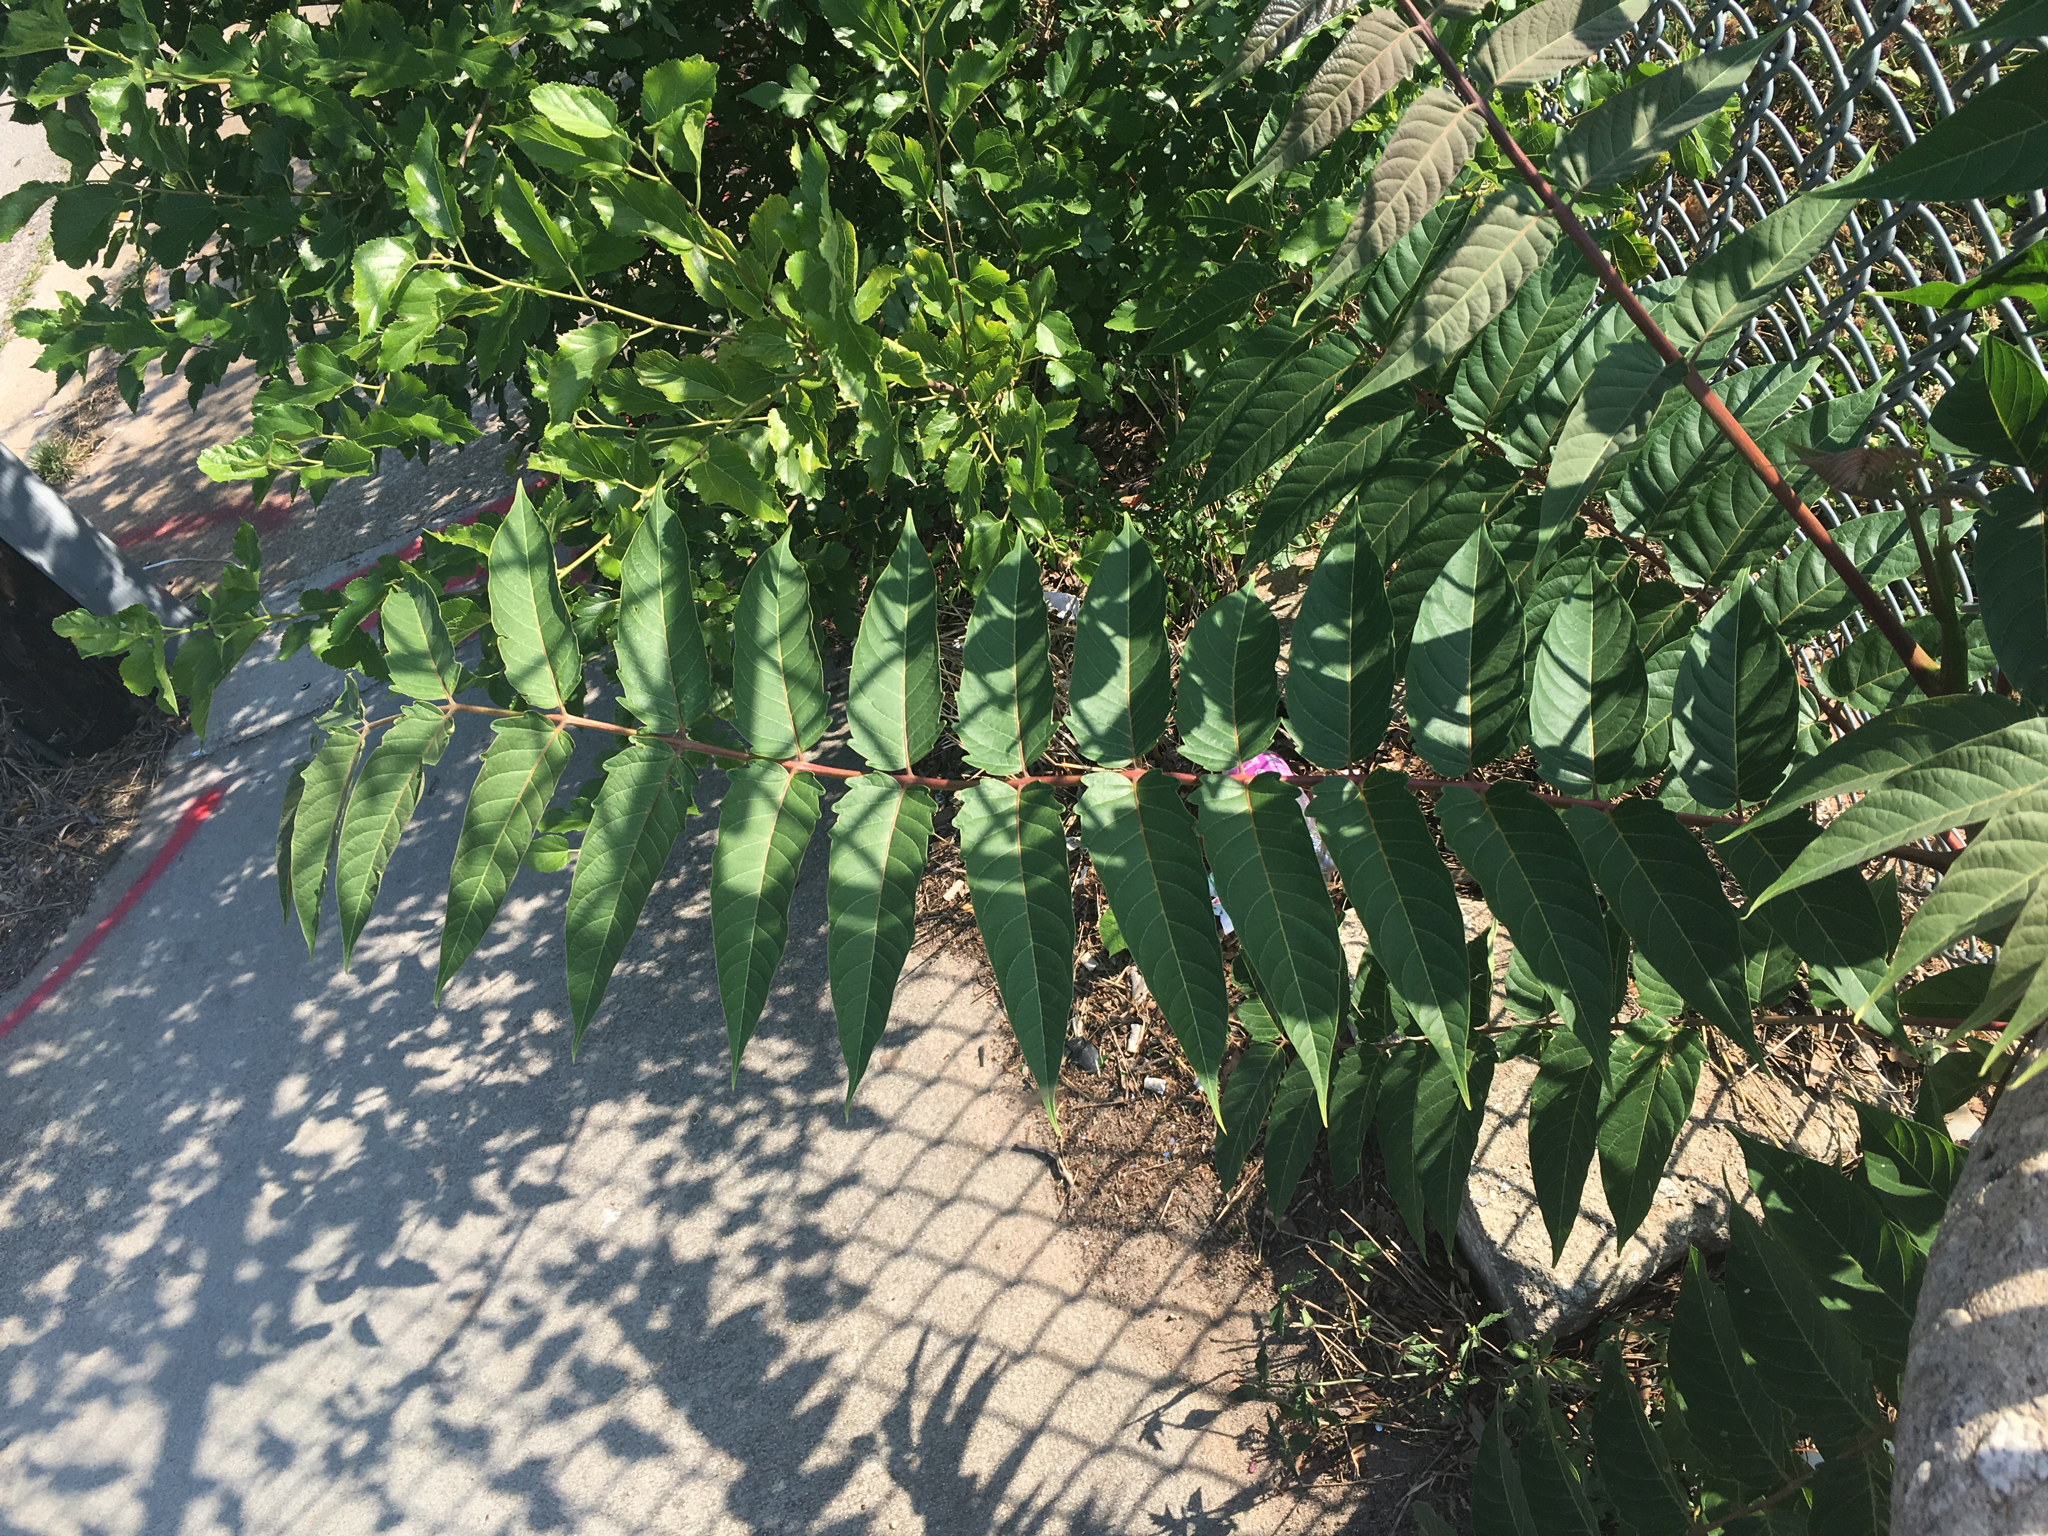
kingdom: Plantae
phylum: Tracheophyta
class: Magnoliopsida
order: Sapindales
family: Simaroubaceae
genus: Ailanthus
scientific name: Ailanthus altissima
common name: Tree-of-heaven
